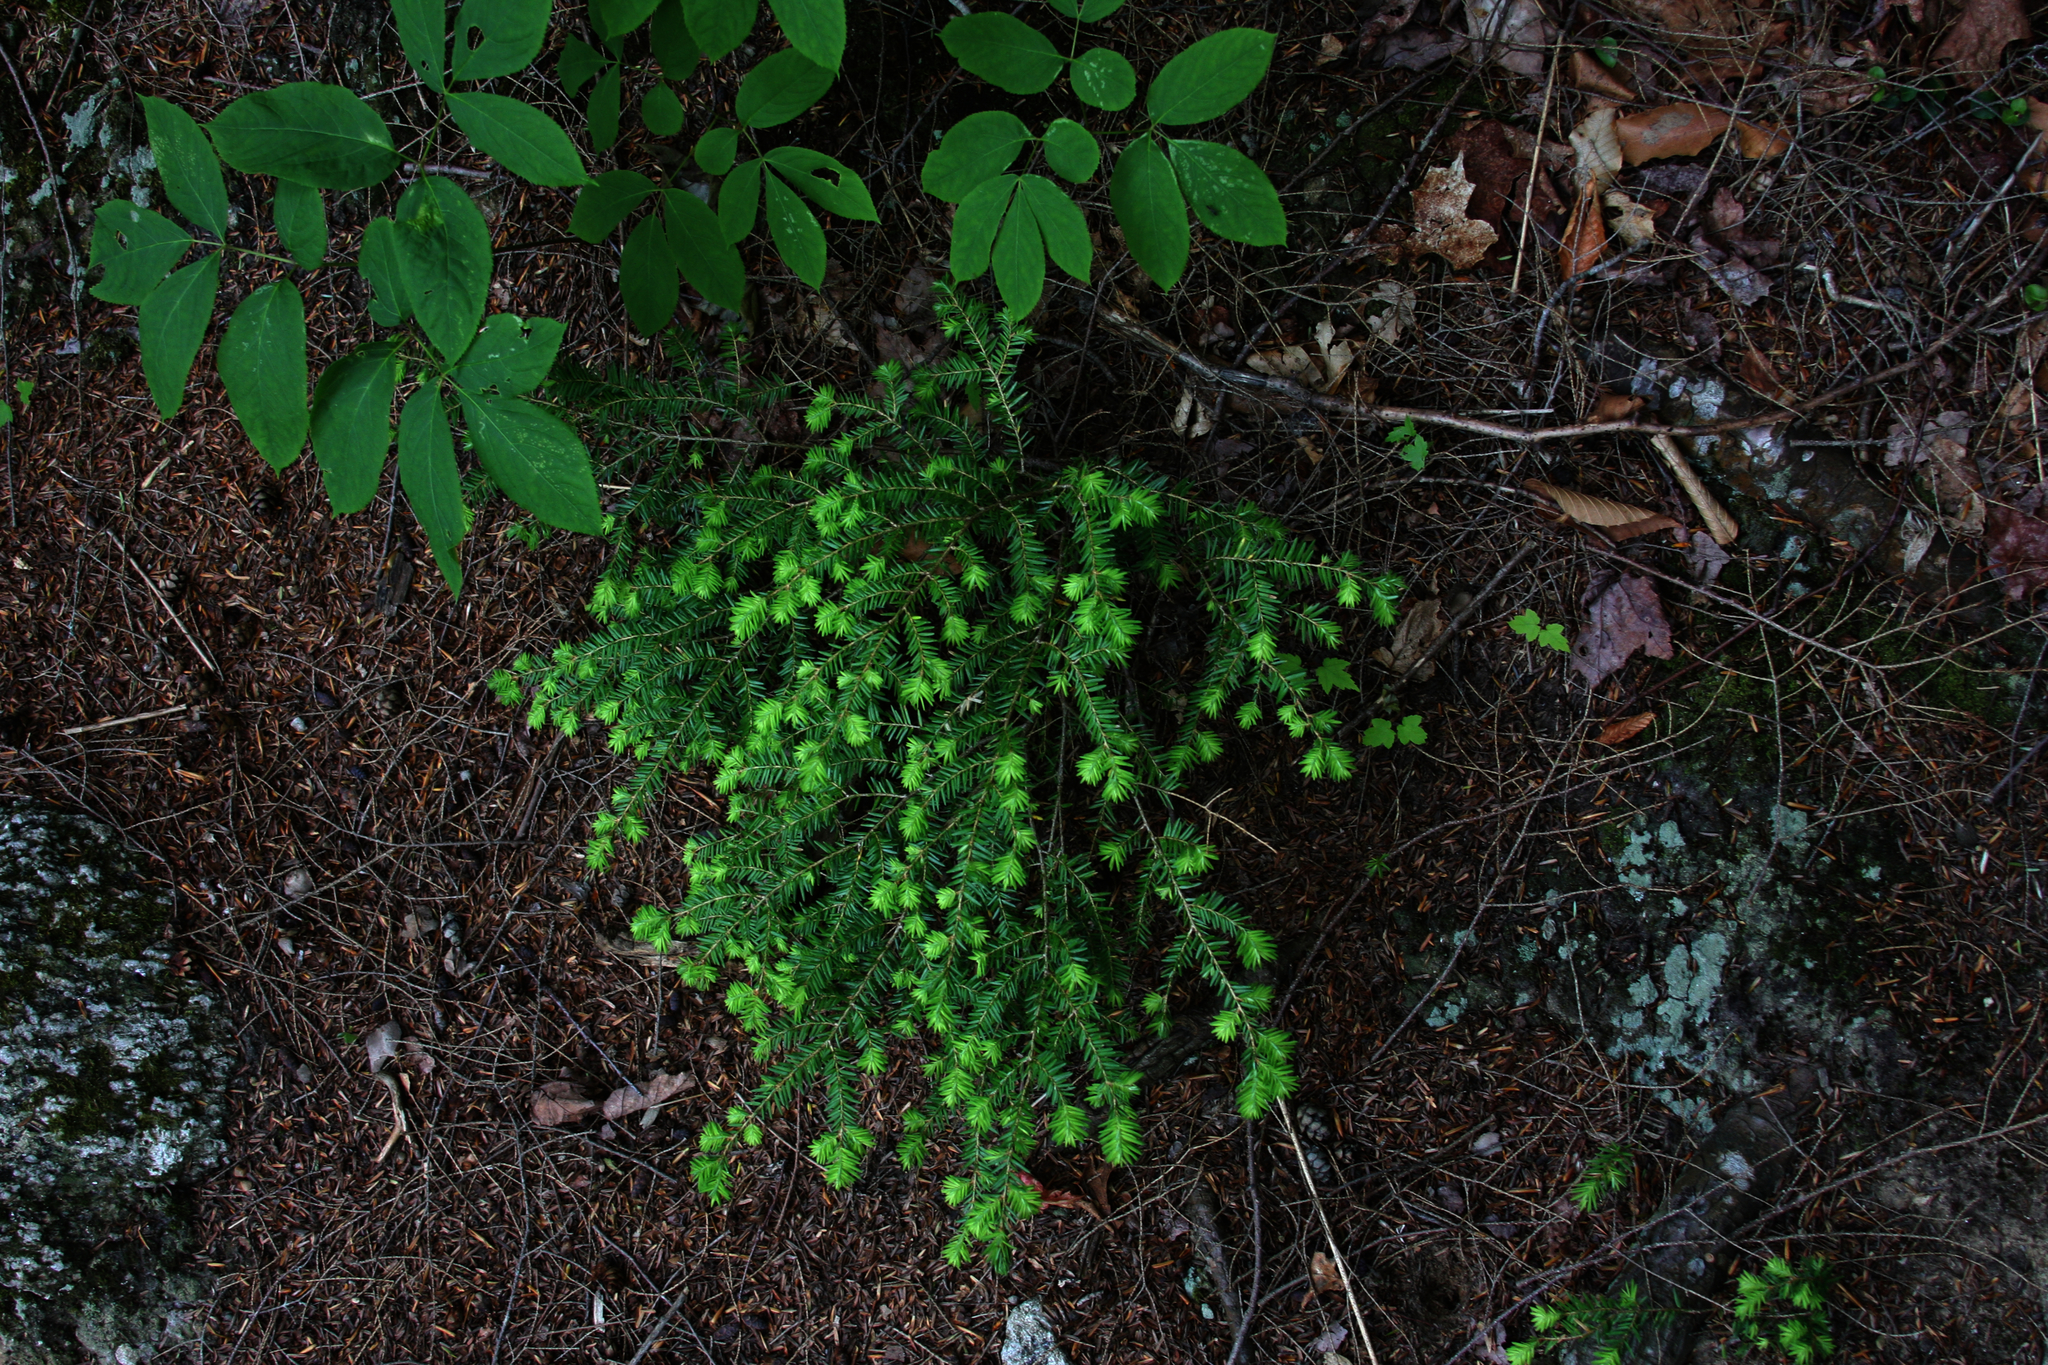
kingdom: Plantae
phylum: Tracheophyta
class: Pinopsida
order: Pinales
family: Pinaceae
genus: Tsuga
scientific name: Tsuga canadensis
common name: Eastern hemlock
